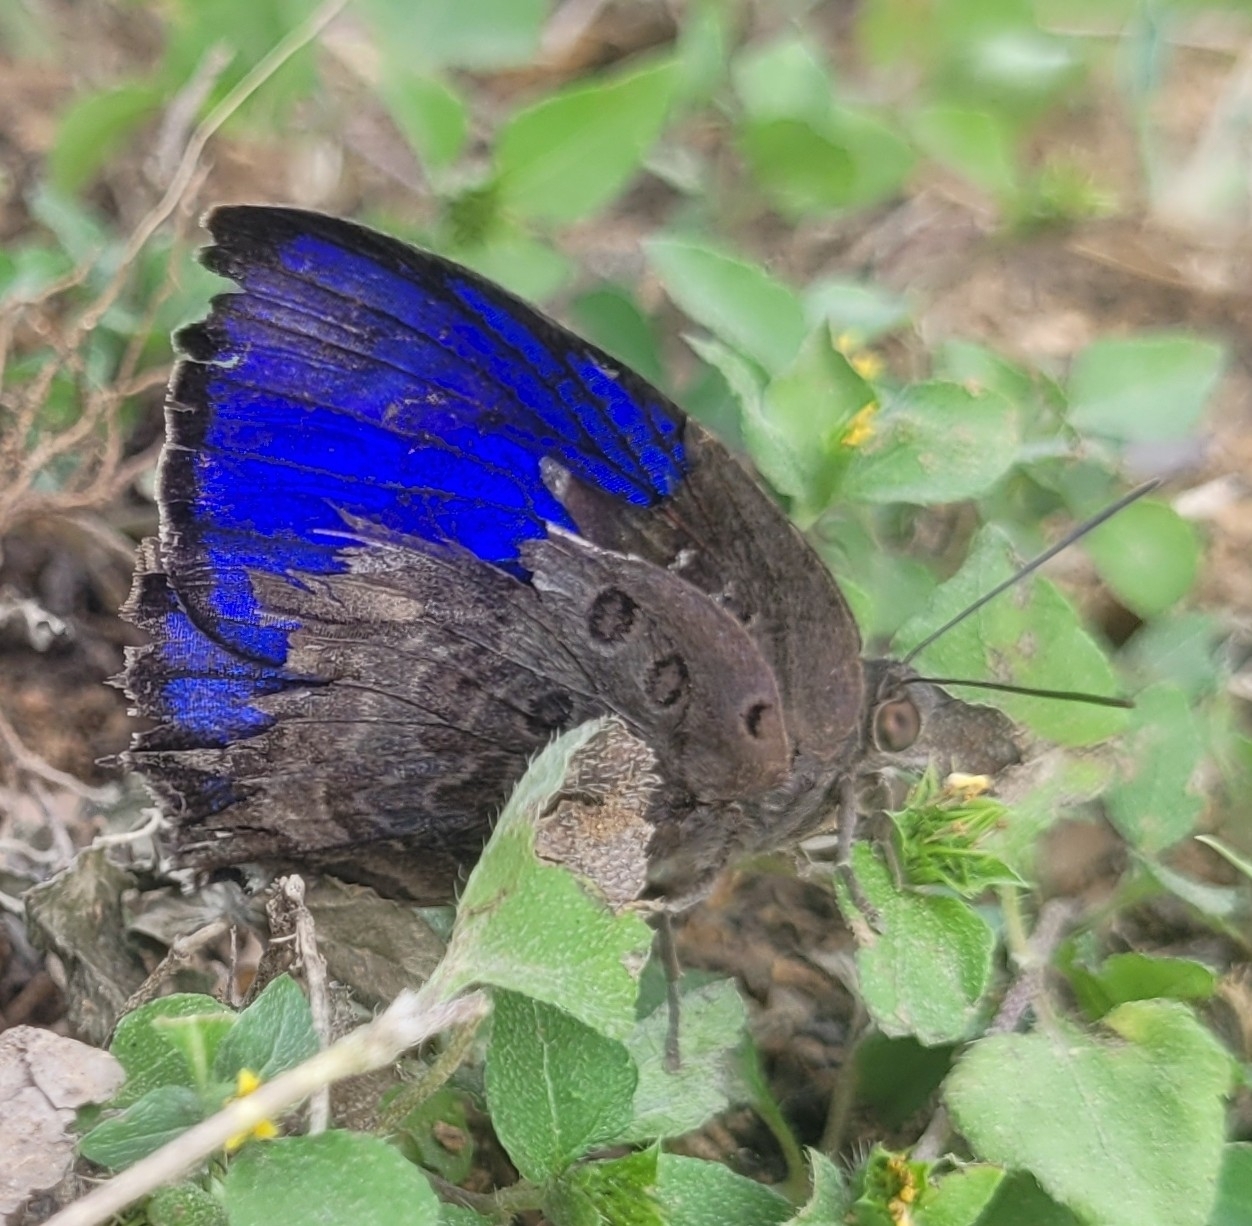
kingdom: Animalia
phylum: Arthropoda
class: Insecta
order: Lepidoptera
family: Lycaenidae
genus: Arhopala
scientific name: Arhopala amantes
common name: Large oakblue
